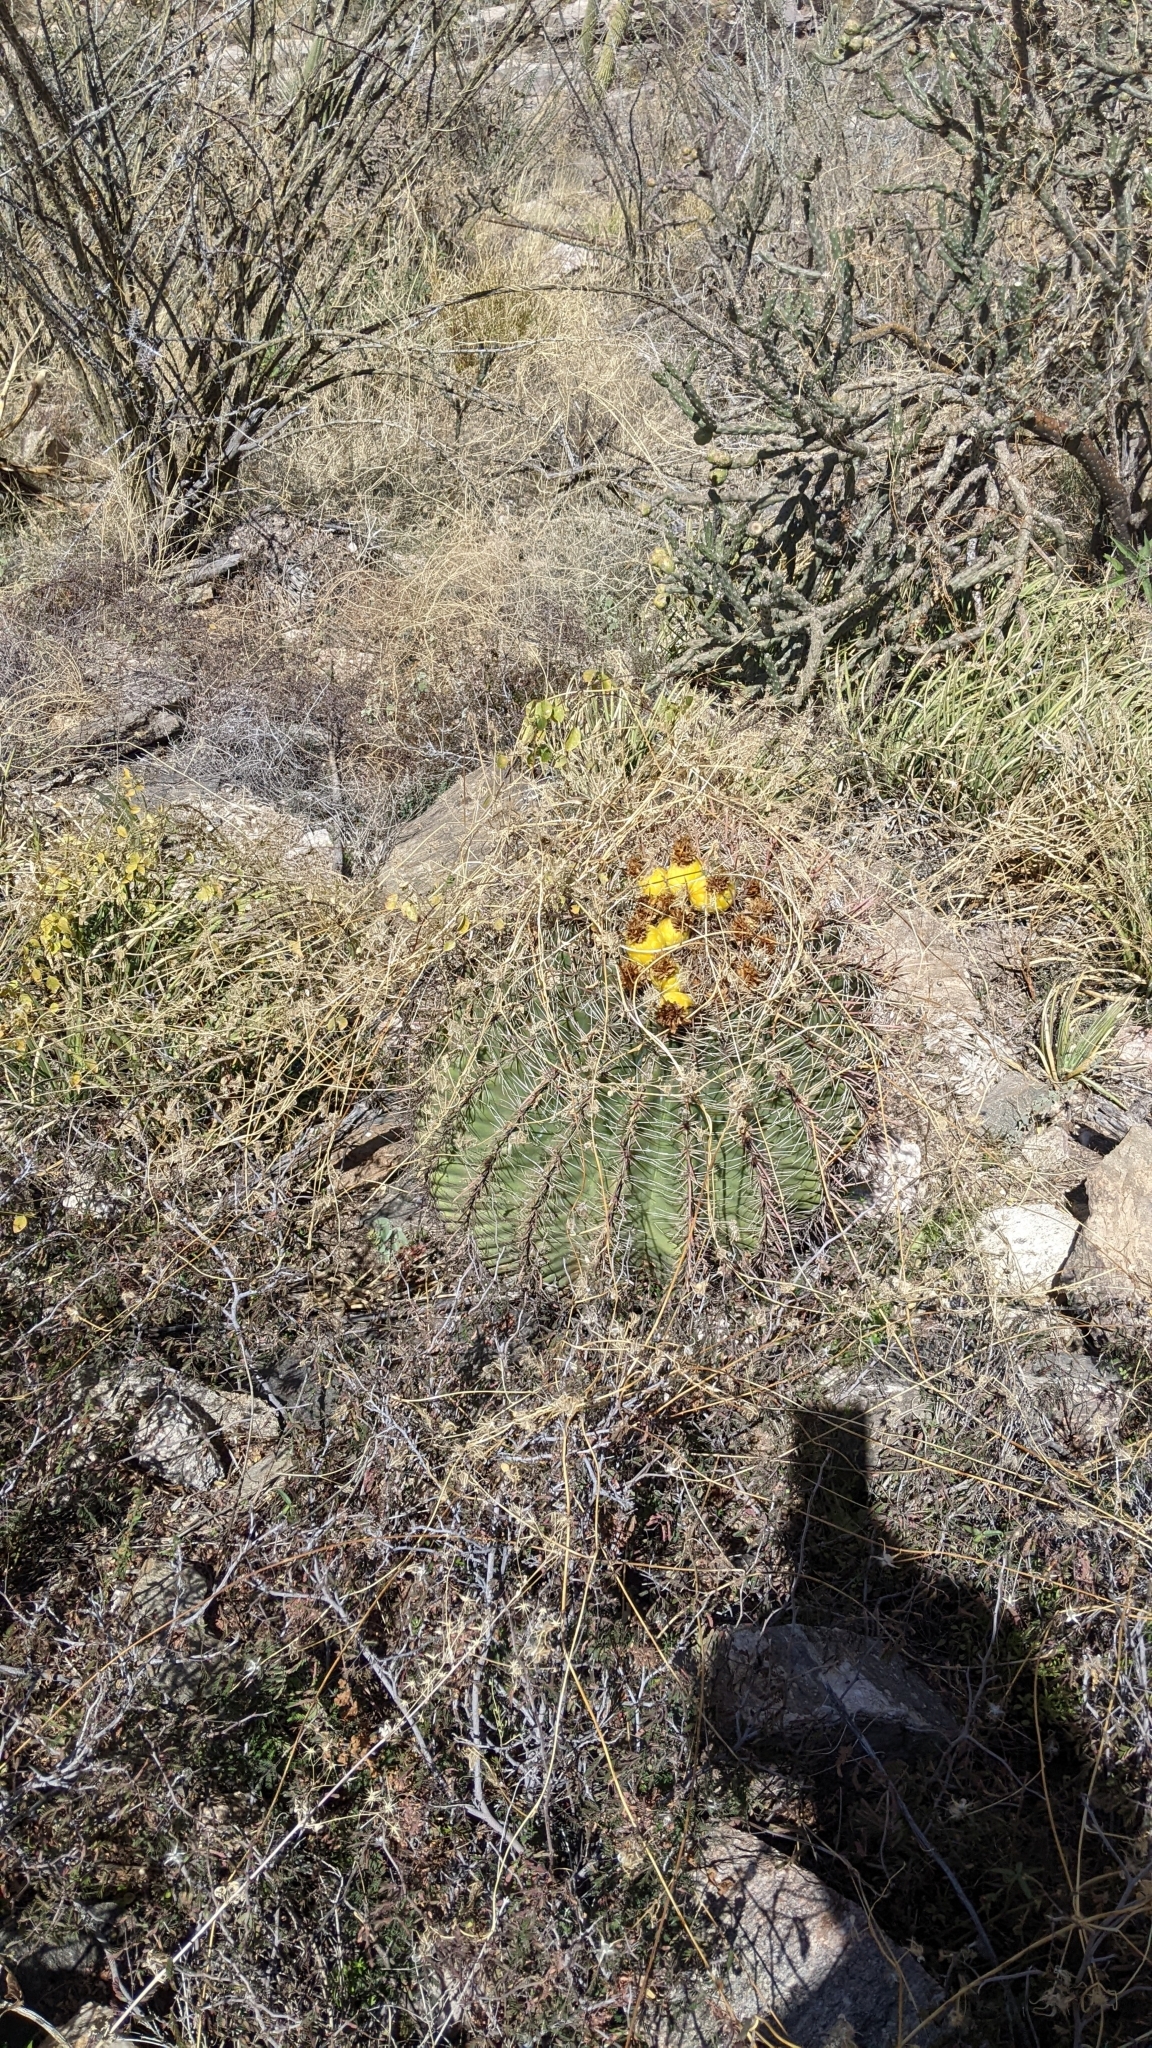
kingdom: Plantae
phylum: Tracheophyta
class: Magnoliopsida
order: Caryophyllales
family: Cactaceae
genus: Ferocactus
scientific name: Ferocactus wislizeni
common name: Candy barrel cactus
